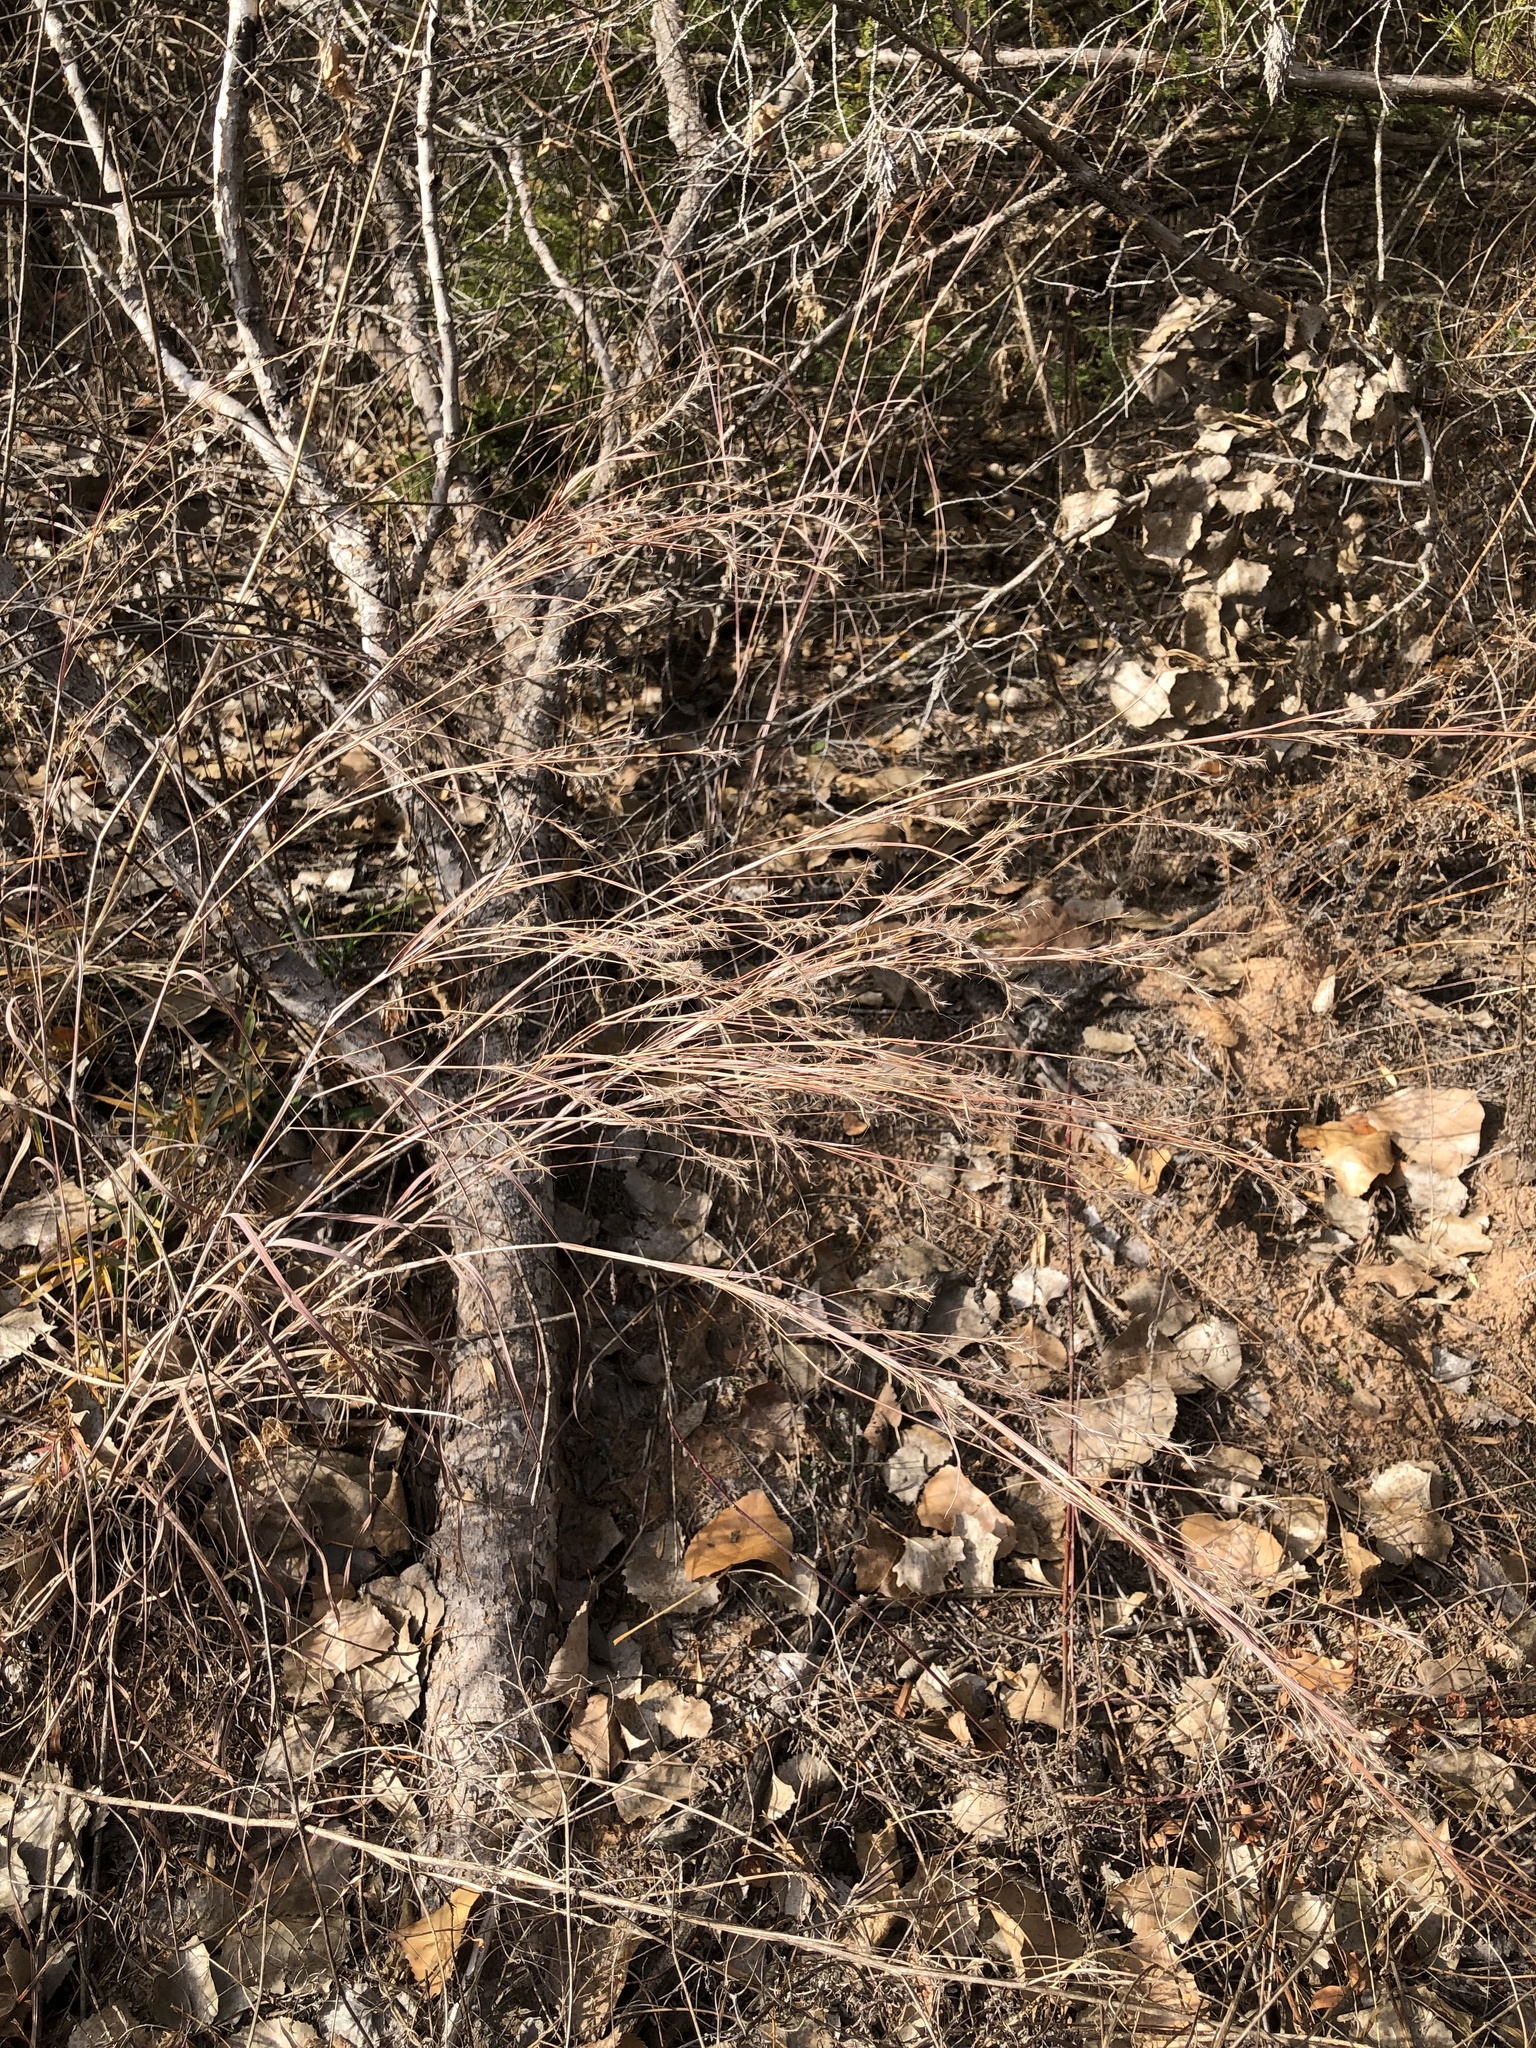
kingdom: Plantae
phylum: Tracheophyta
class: Liliopsida
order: Poales
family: Poaceae
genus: Schizachyrium
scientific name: Schizachyrium scoparium
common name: Little bluestem
